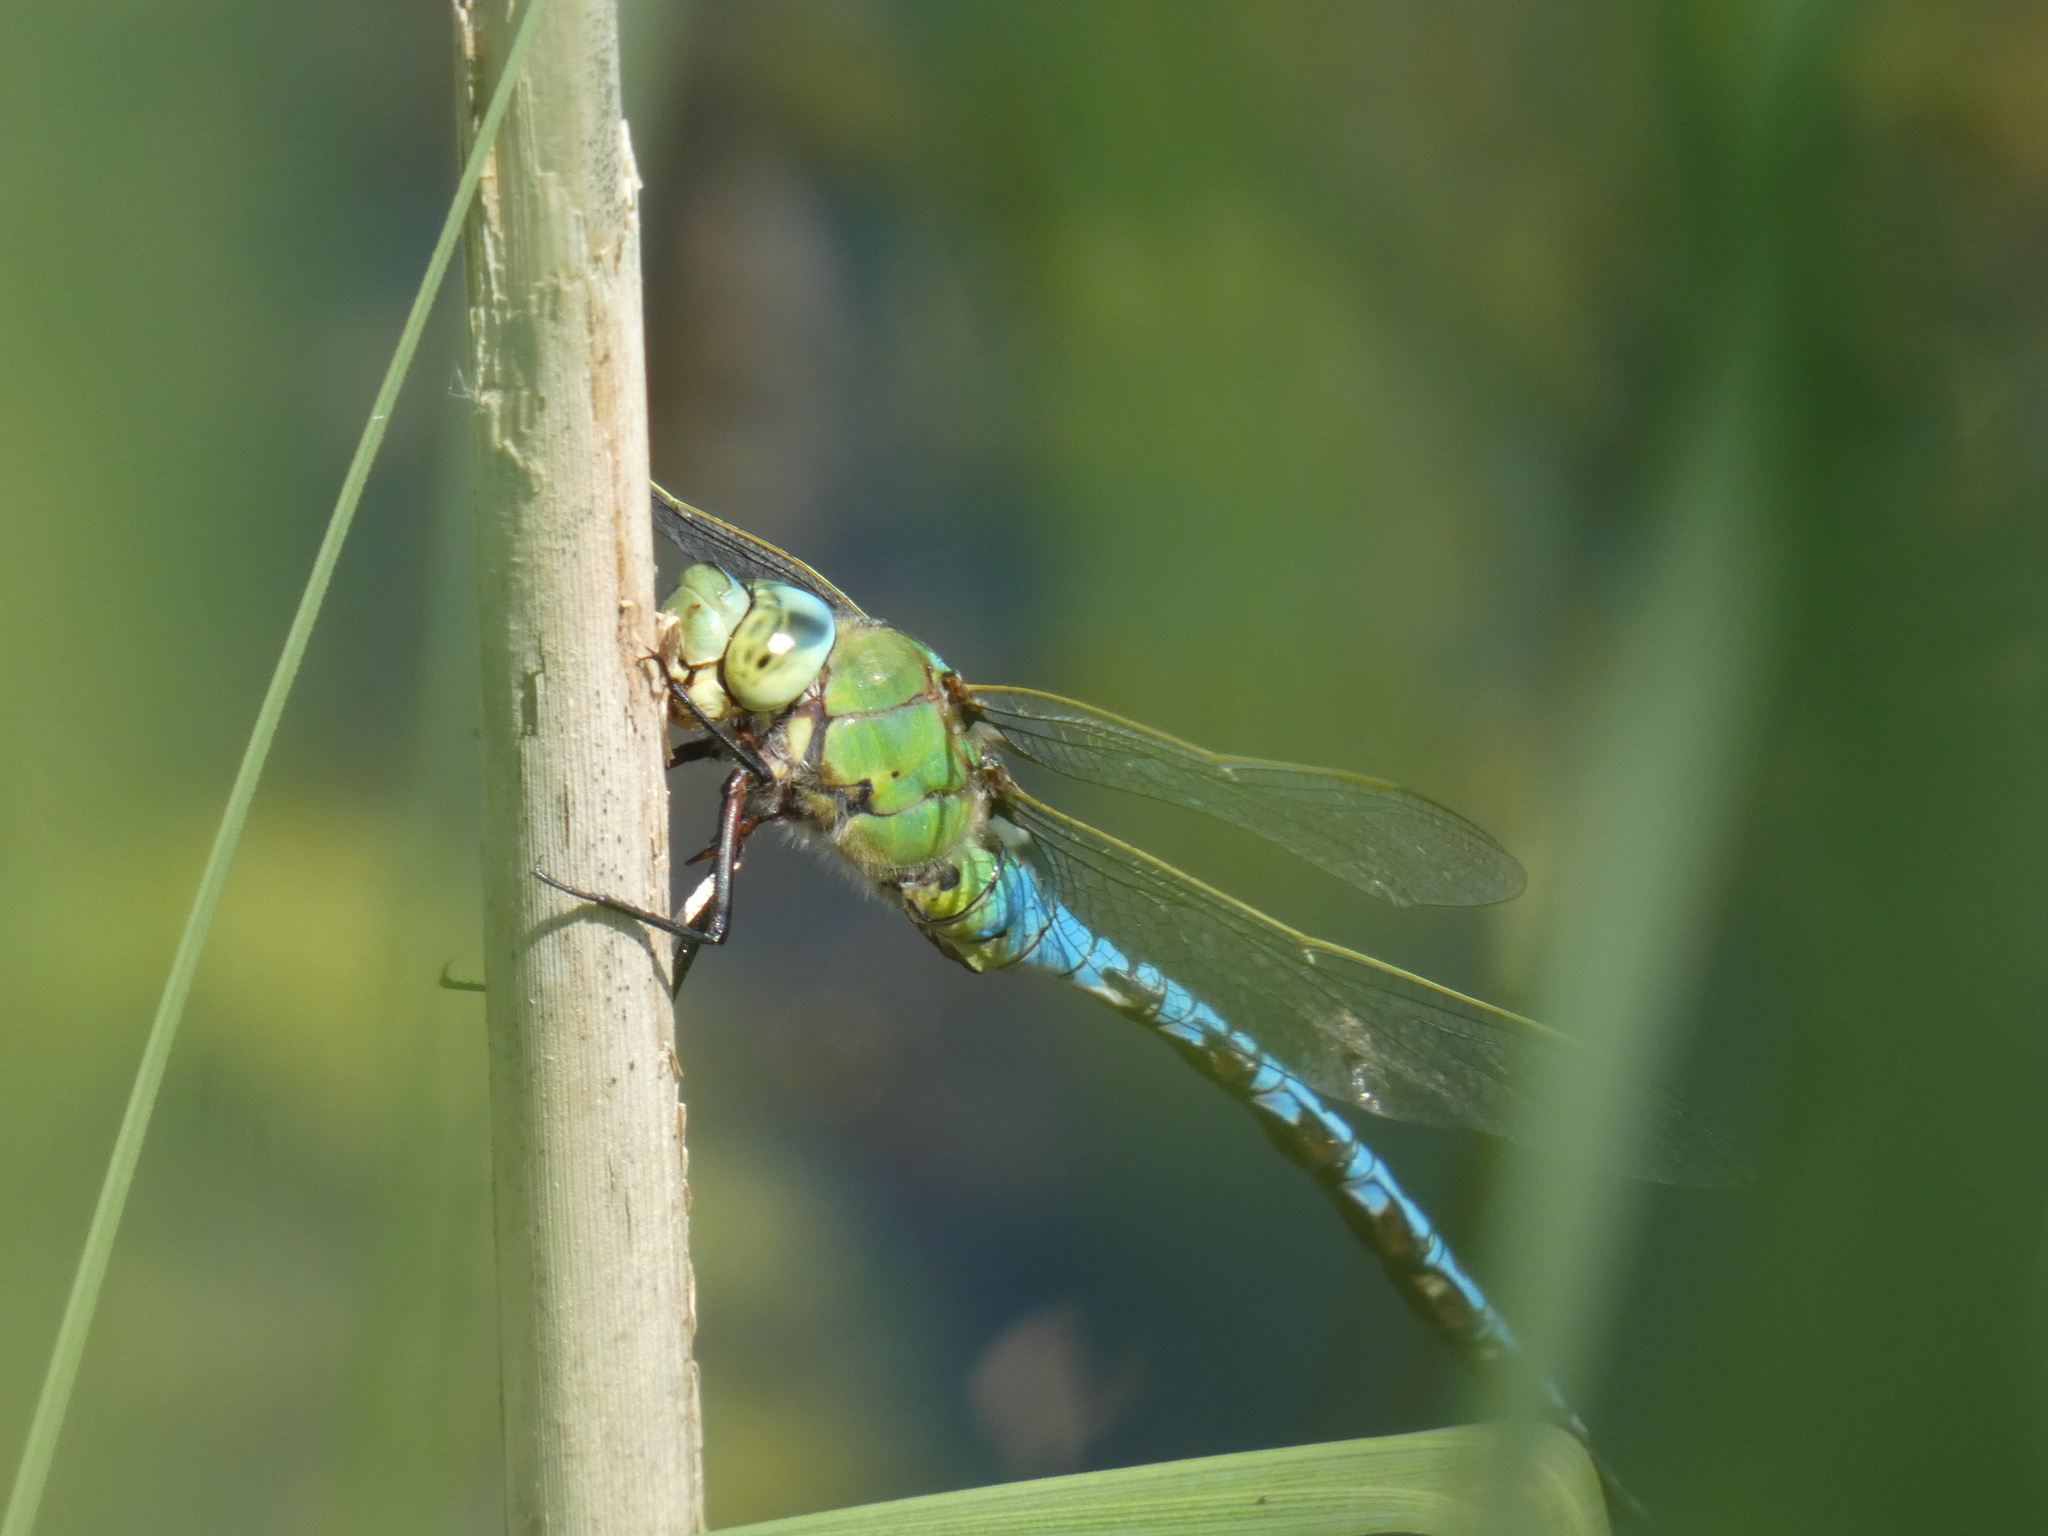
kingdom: Animalia
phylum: Arthropoda
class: Insecta
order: Odonata
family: Aeshnidae
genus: Anax
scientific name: Anax imperator
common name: Emperor dragonfly
